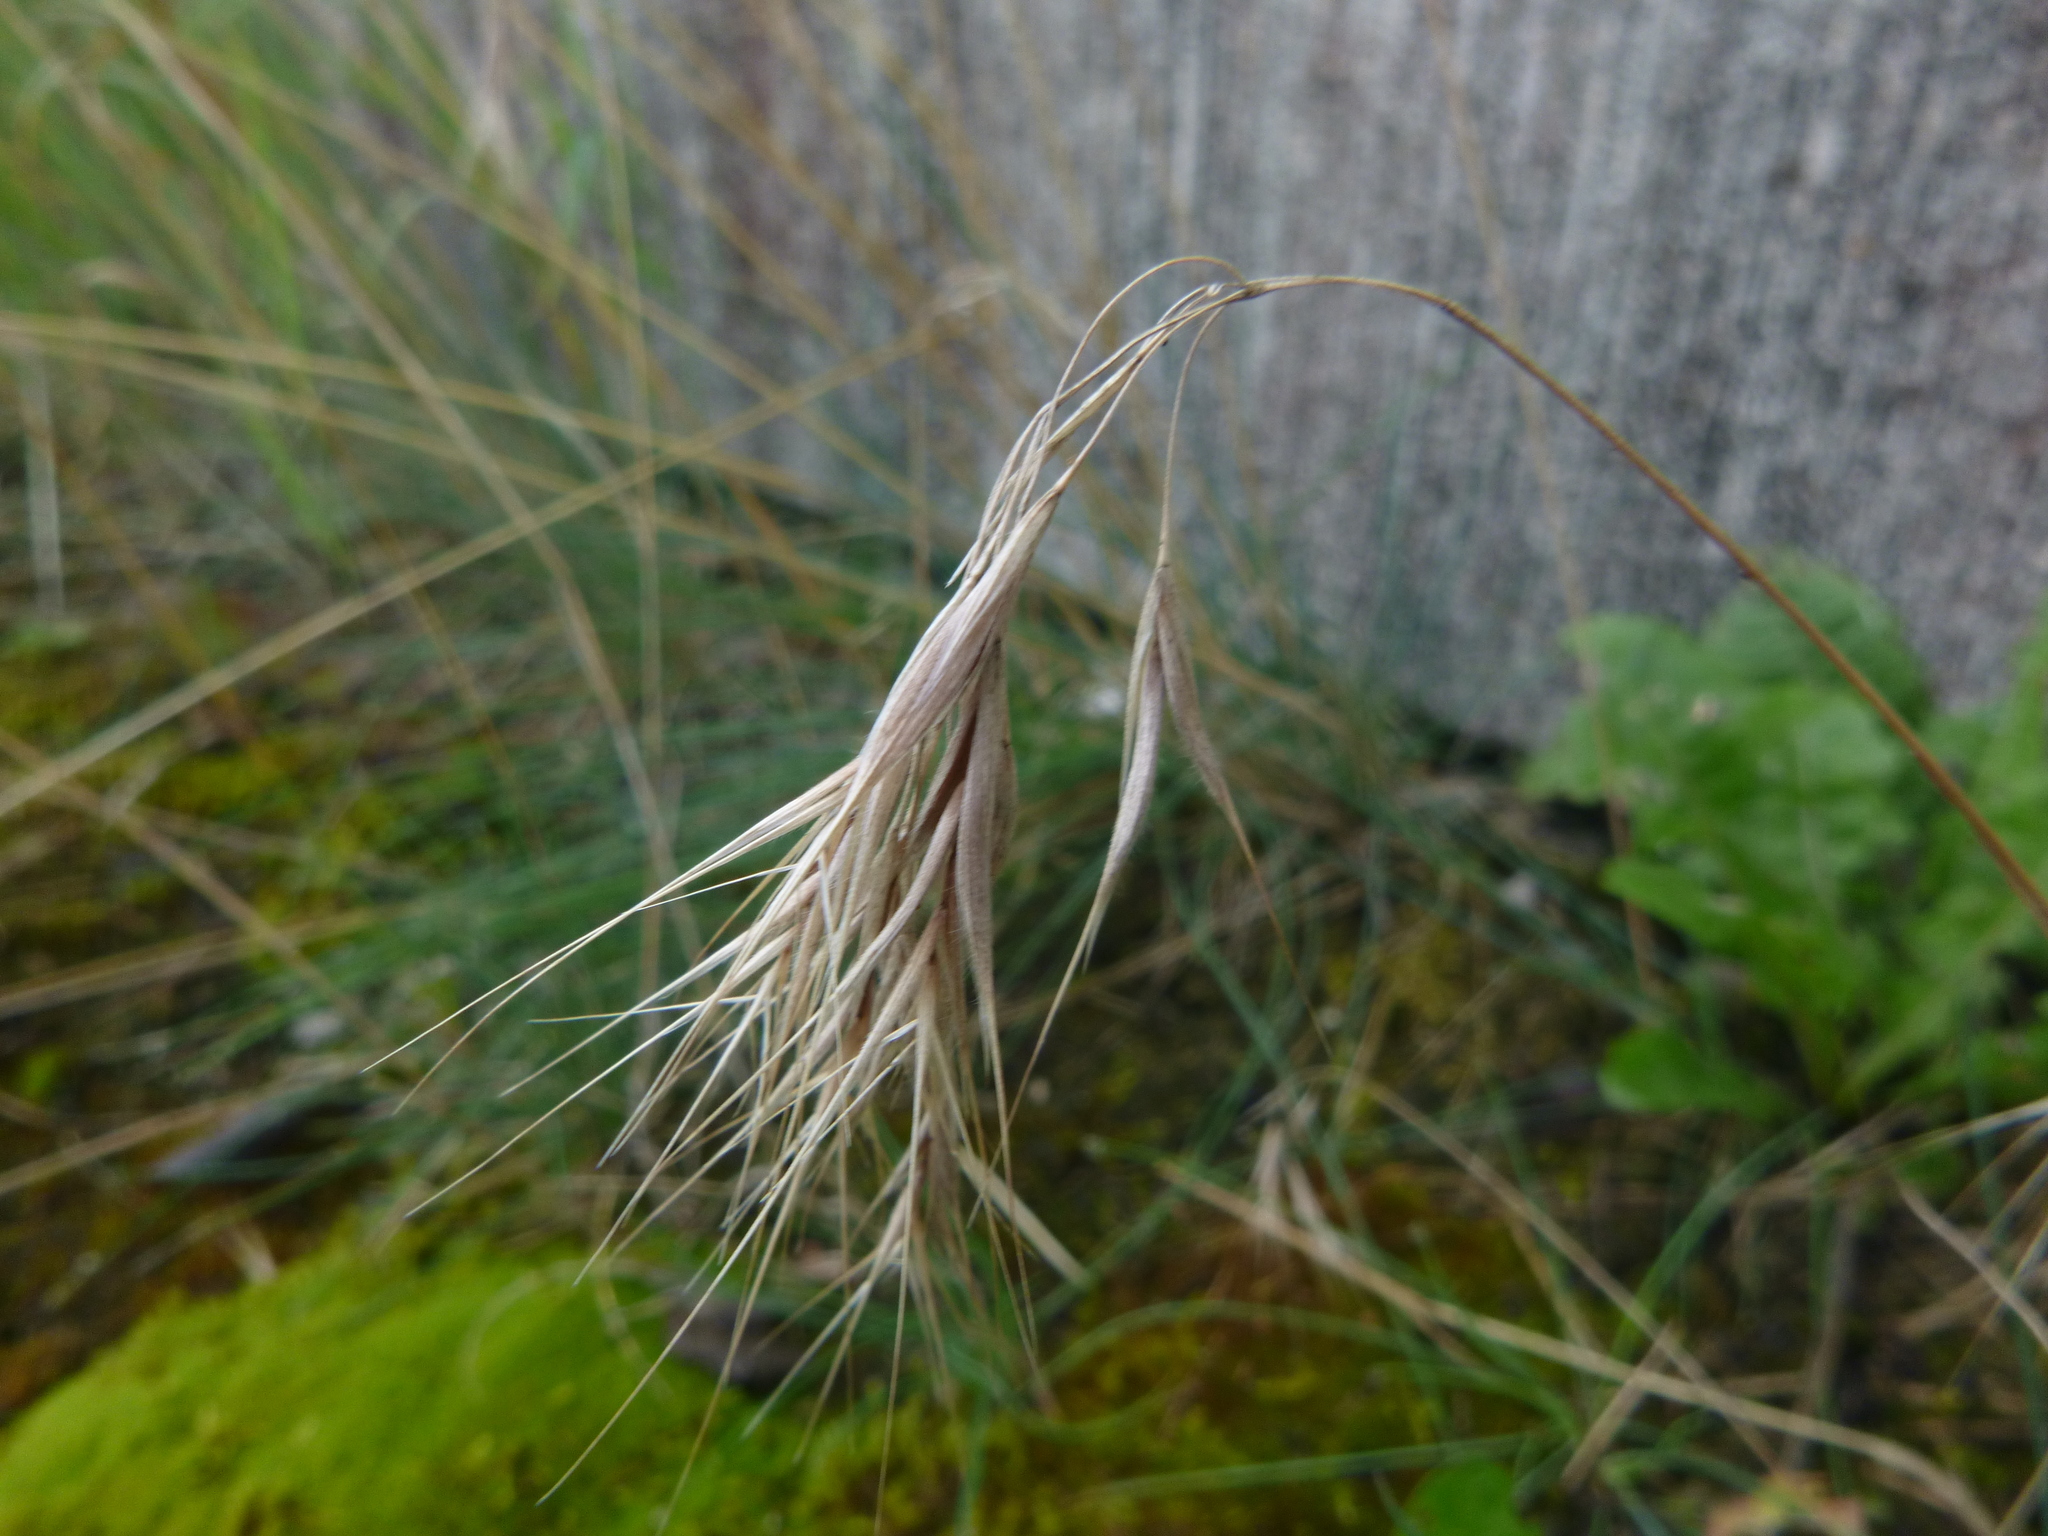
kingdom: Plantae
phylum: Tracheophyta
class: Liliopsida
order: Poales
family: Poaceae
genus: Bromus
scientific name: Bromus tectorum
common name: Cheatgrass
